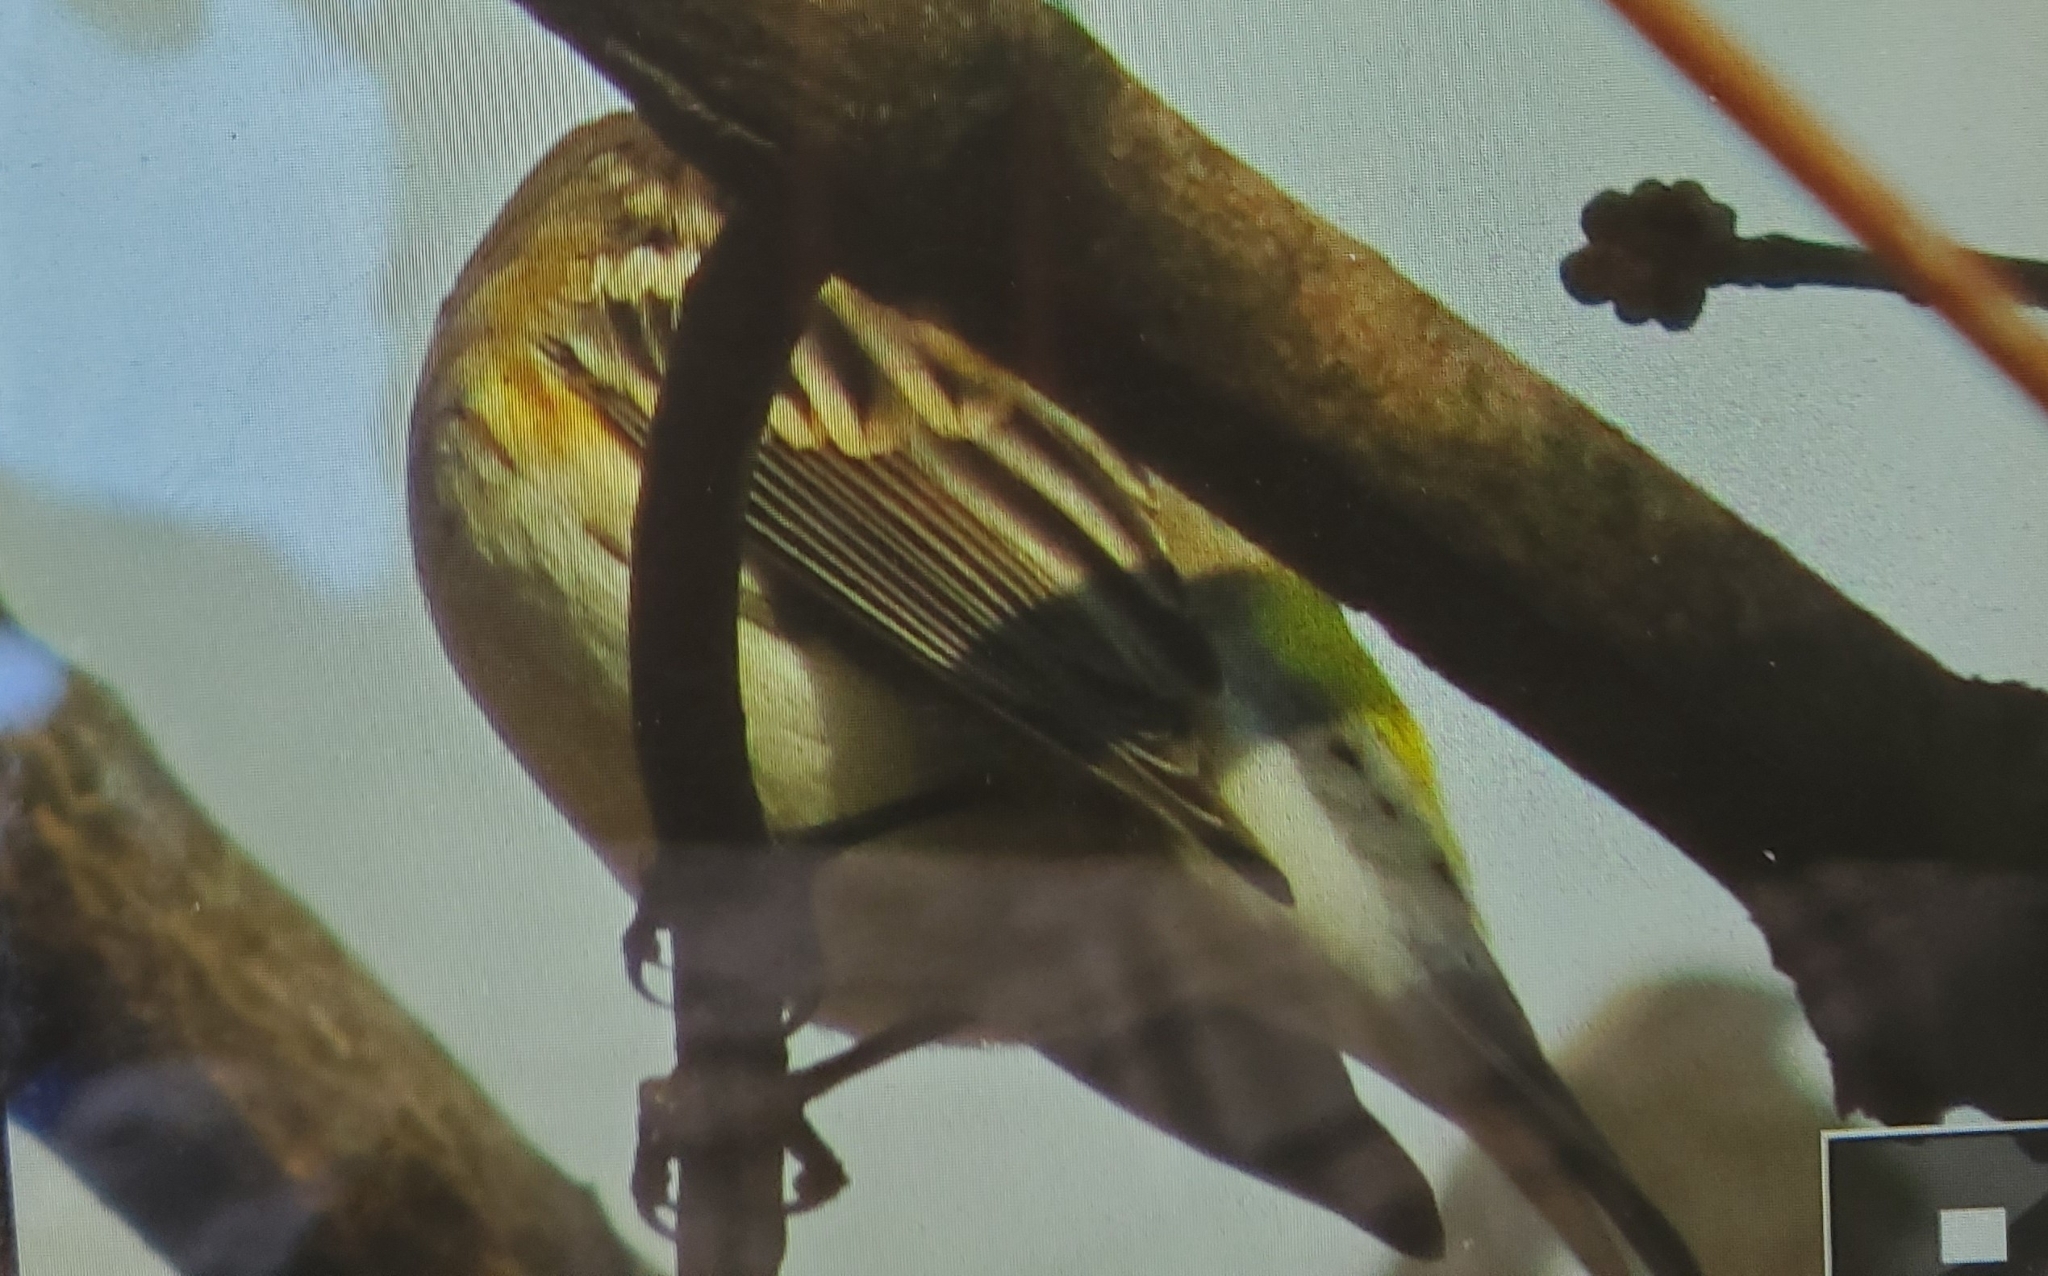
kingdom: Animalia
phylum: Chordata
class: Aves
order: Passeriformes
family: Parulidae
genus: Setophaga
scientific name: Setophaga coronata
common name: Myrtle warbler
